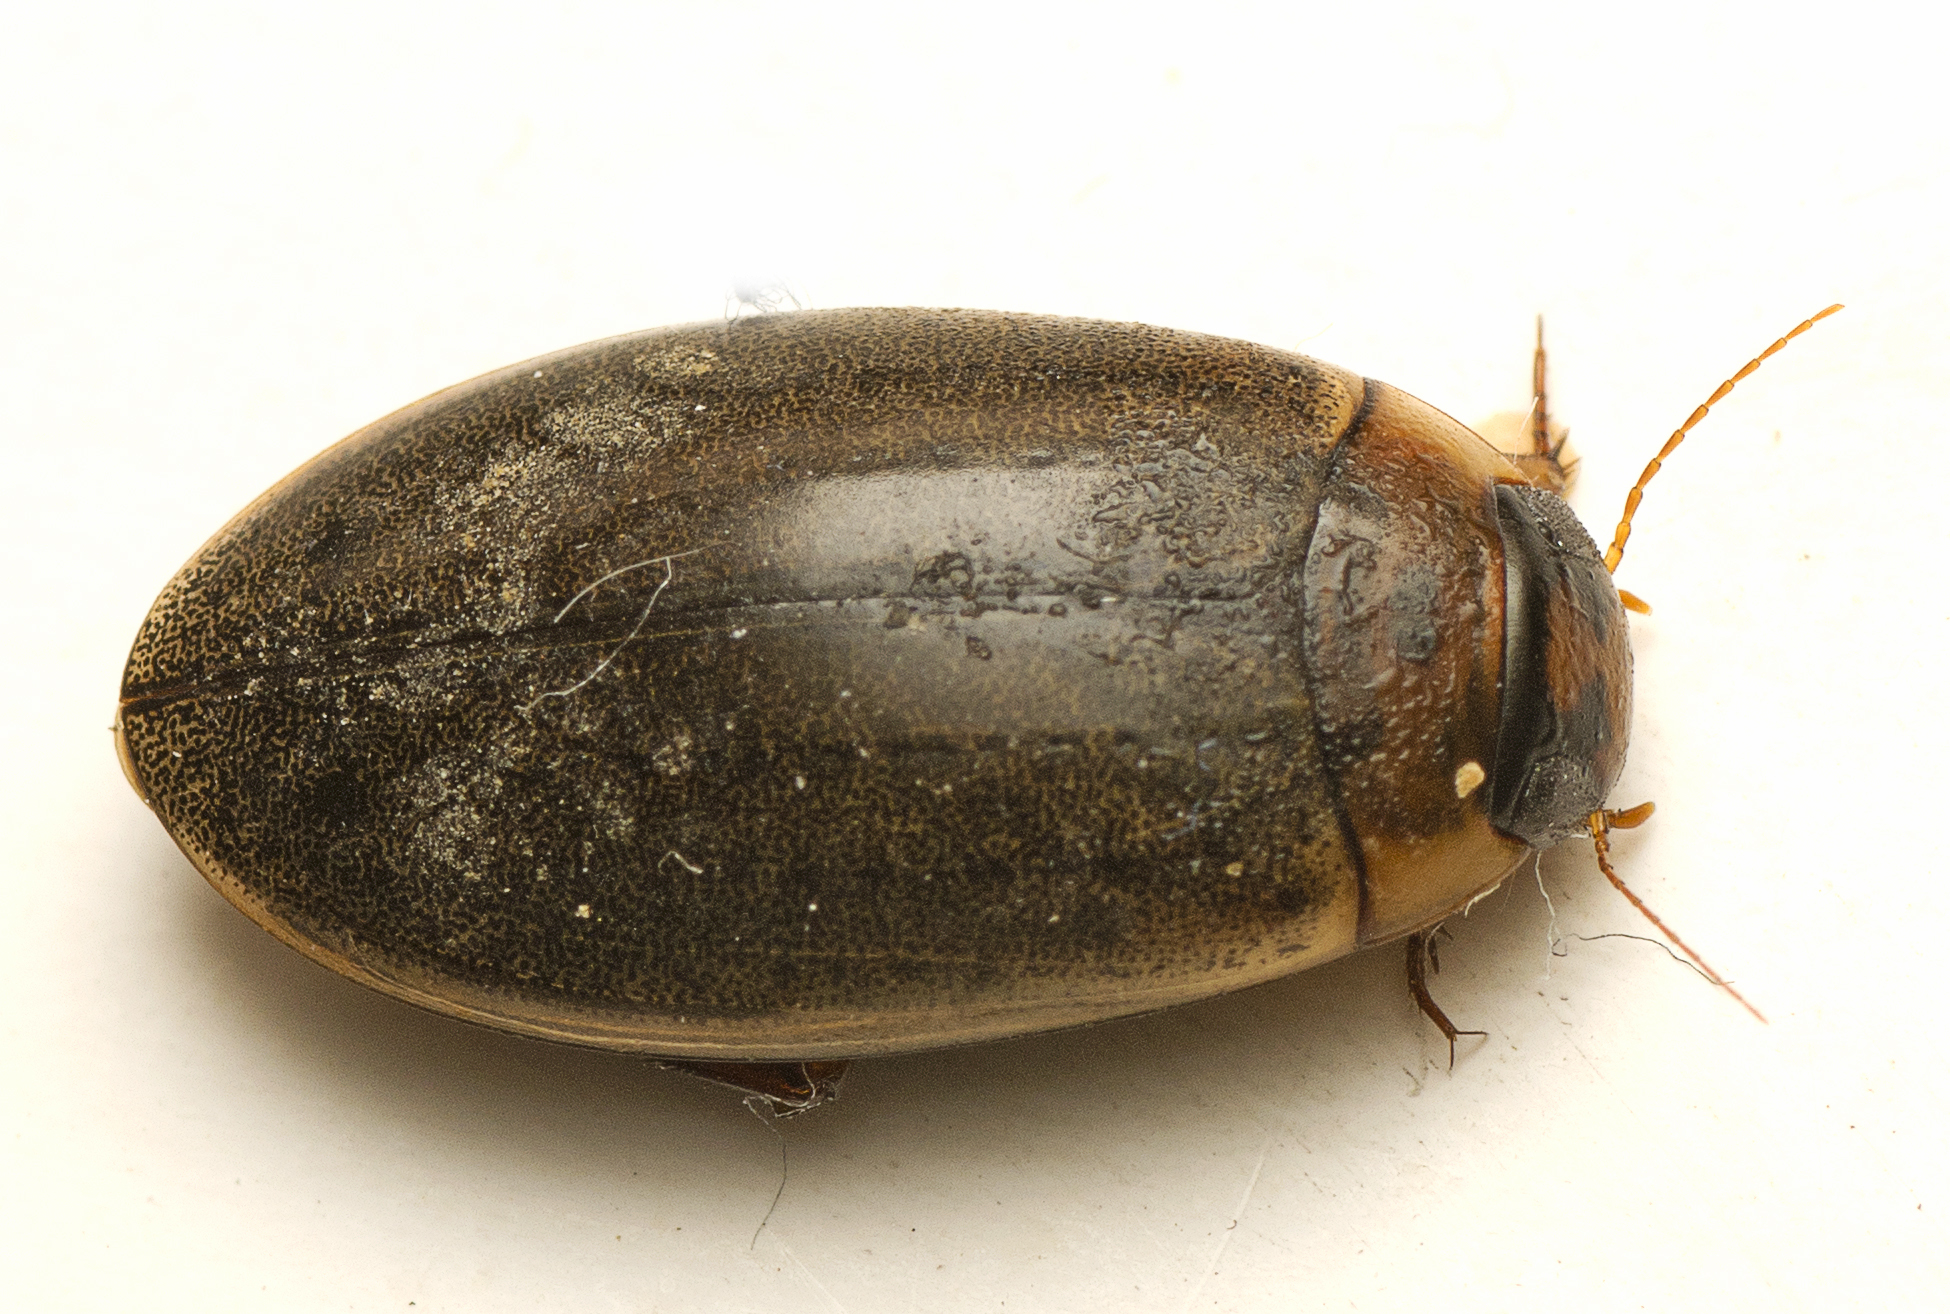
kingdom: Animalia
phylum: Arthropoda
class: Insecta
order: Coleoptera
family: Dytiscidae
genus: Rhantus
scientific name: Rhantus suturalis
